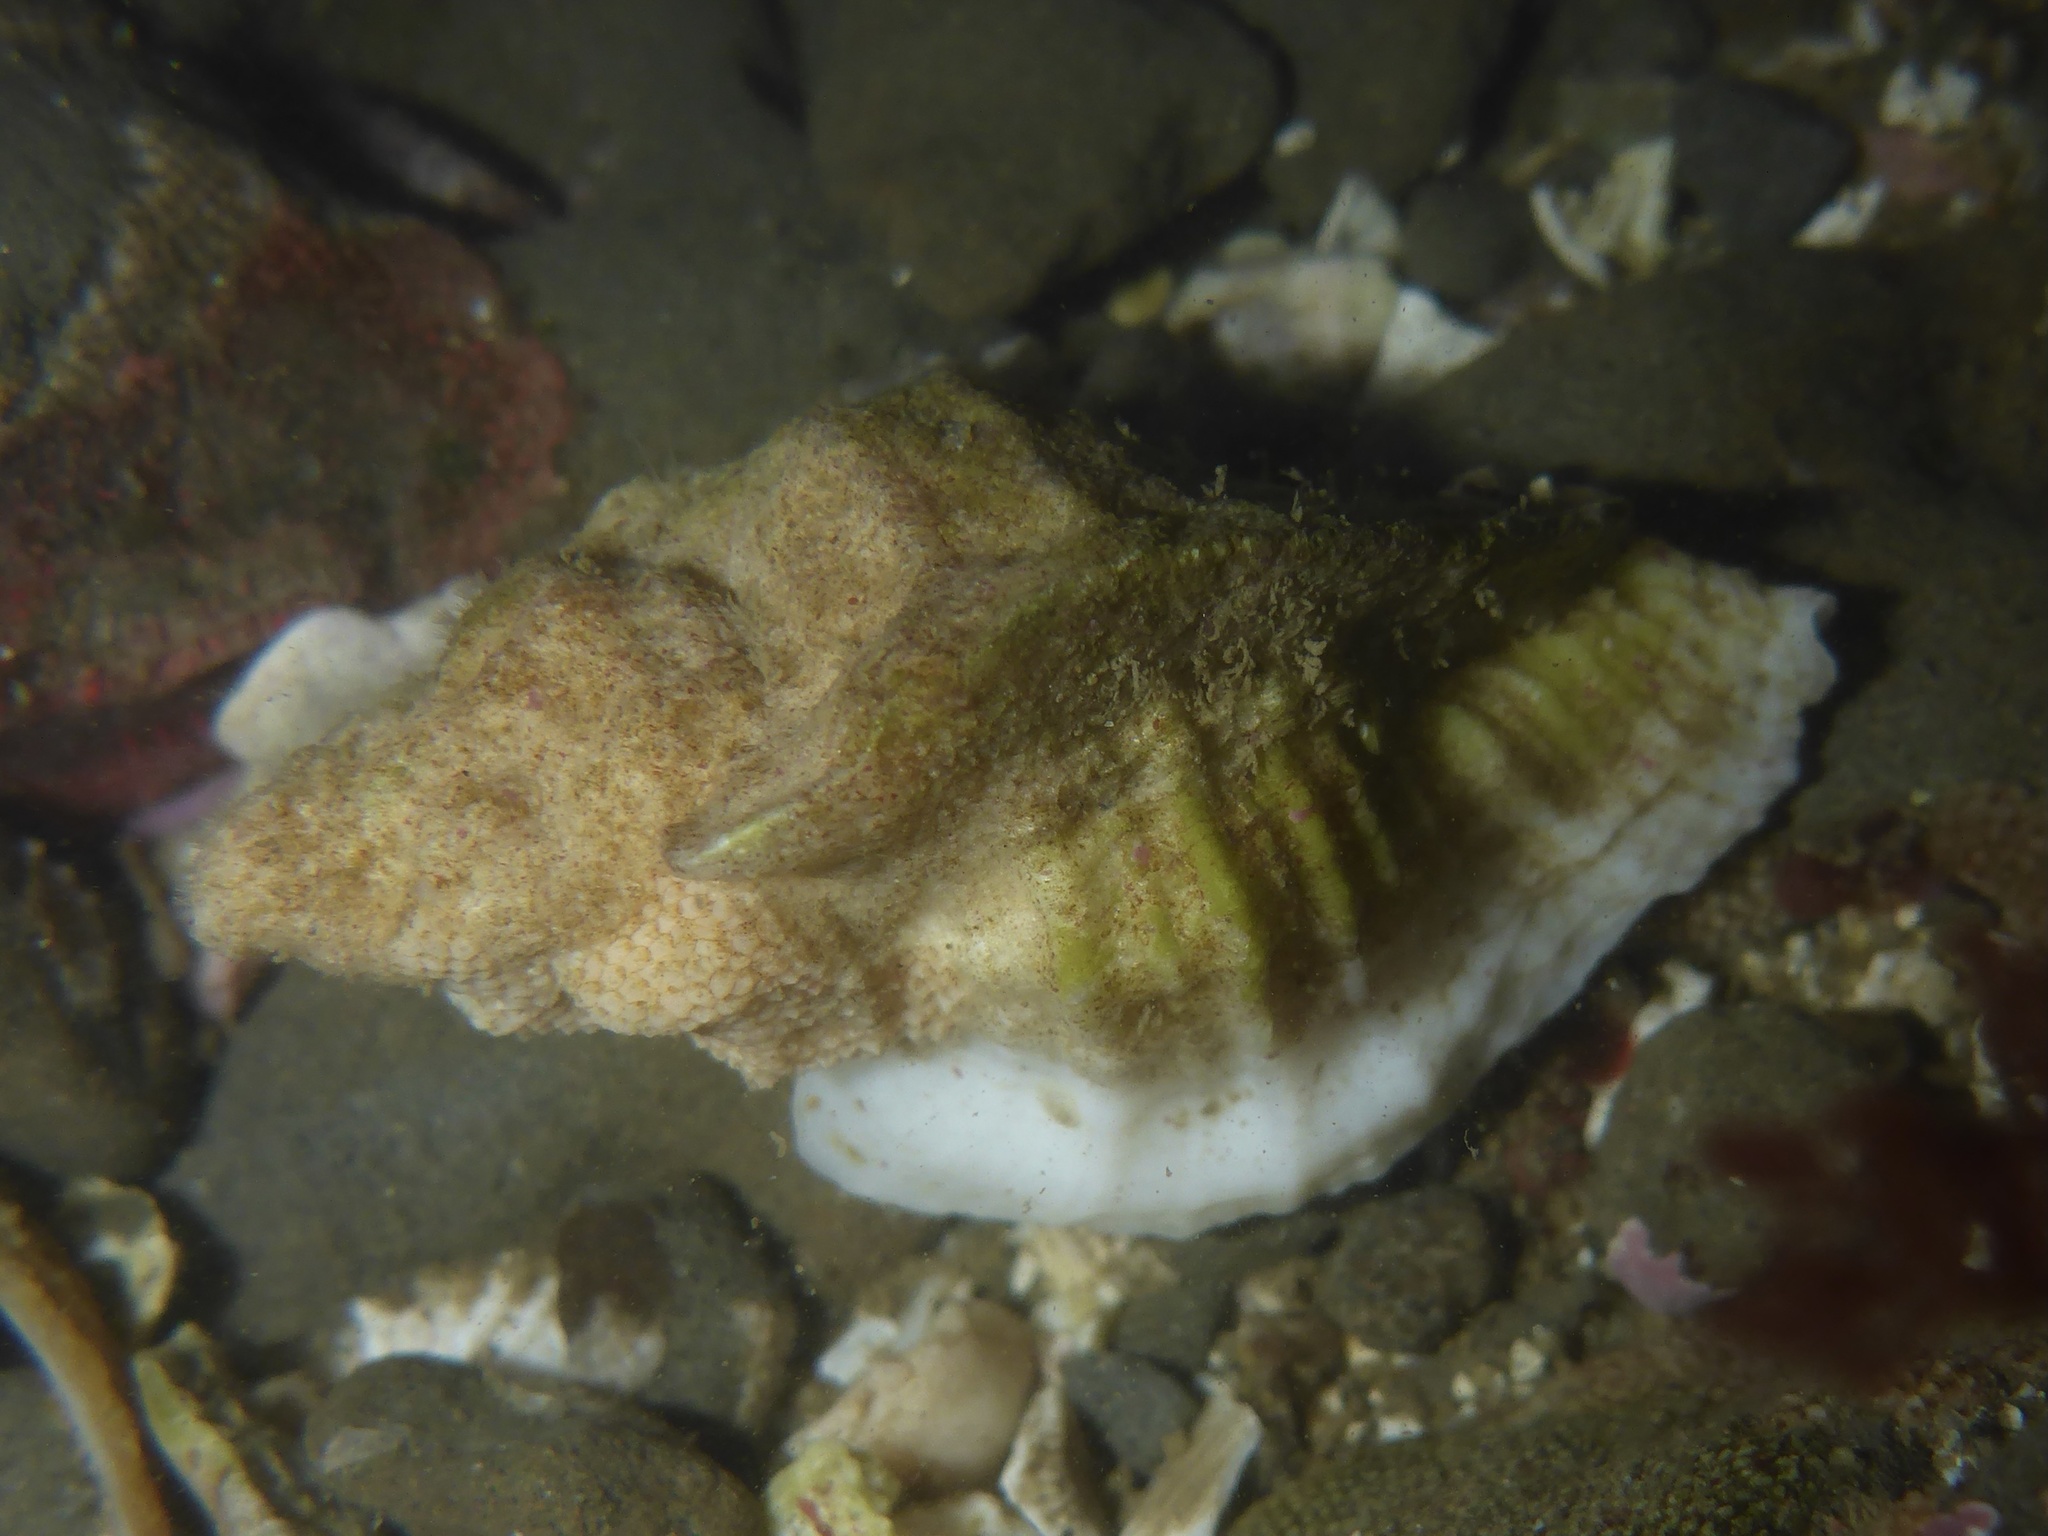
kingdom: Animalia
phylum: Mollusca
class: Gastropoda
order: Neogastropoda
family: Muricidae
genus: Ceratostoma
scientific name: Ceratostoma foliatum
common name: Foliate thorn purpura
